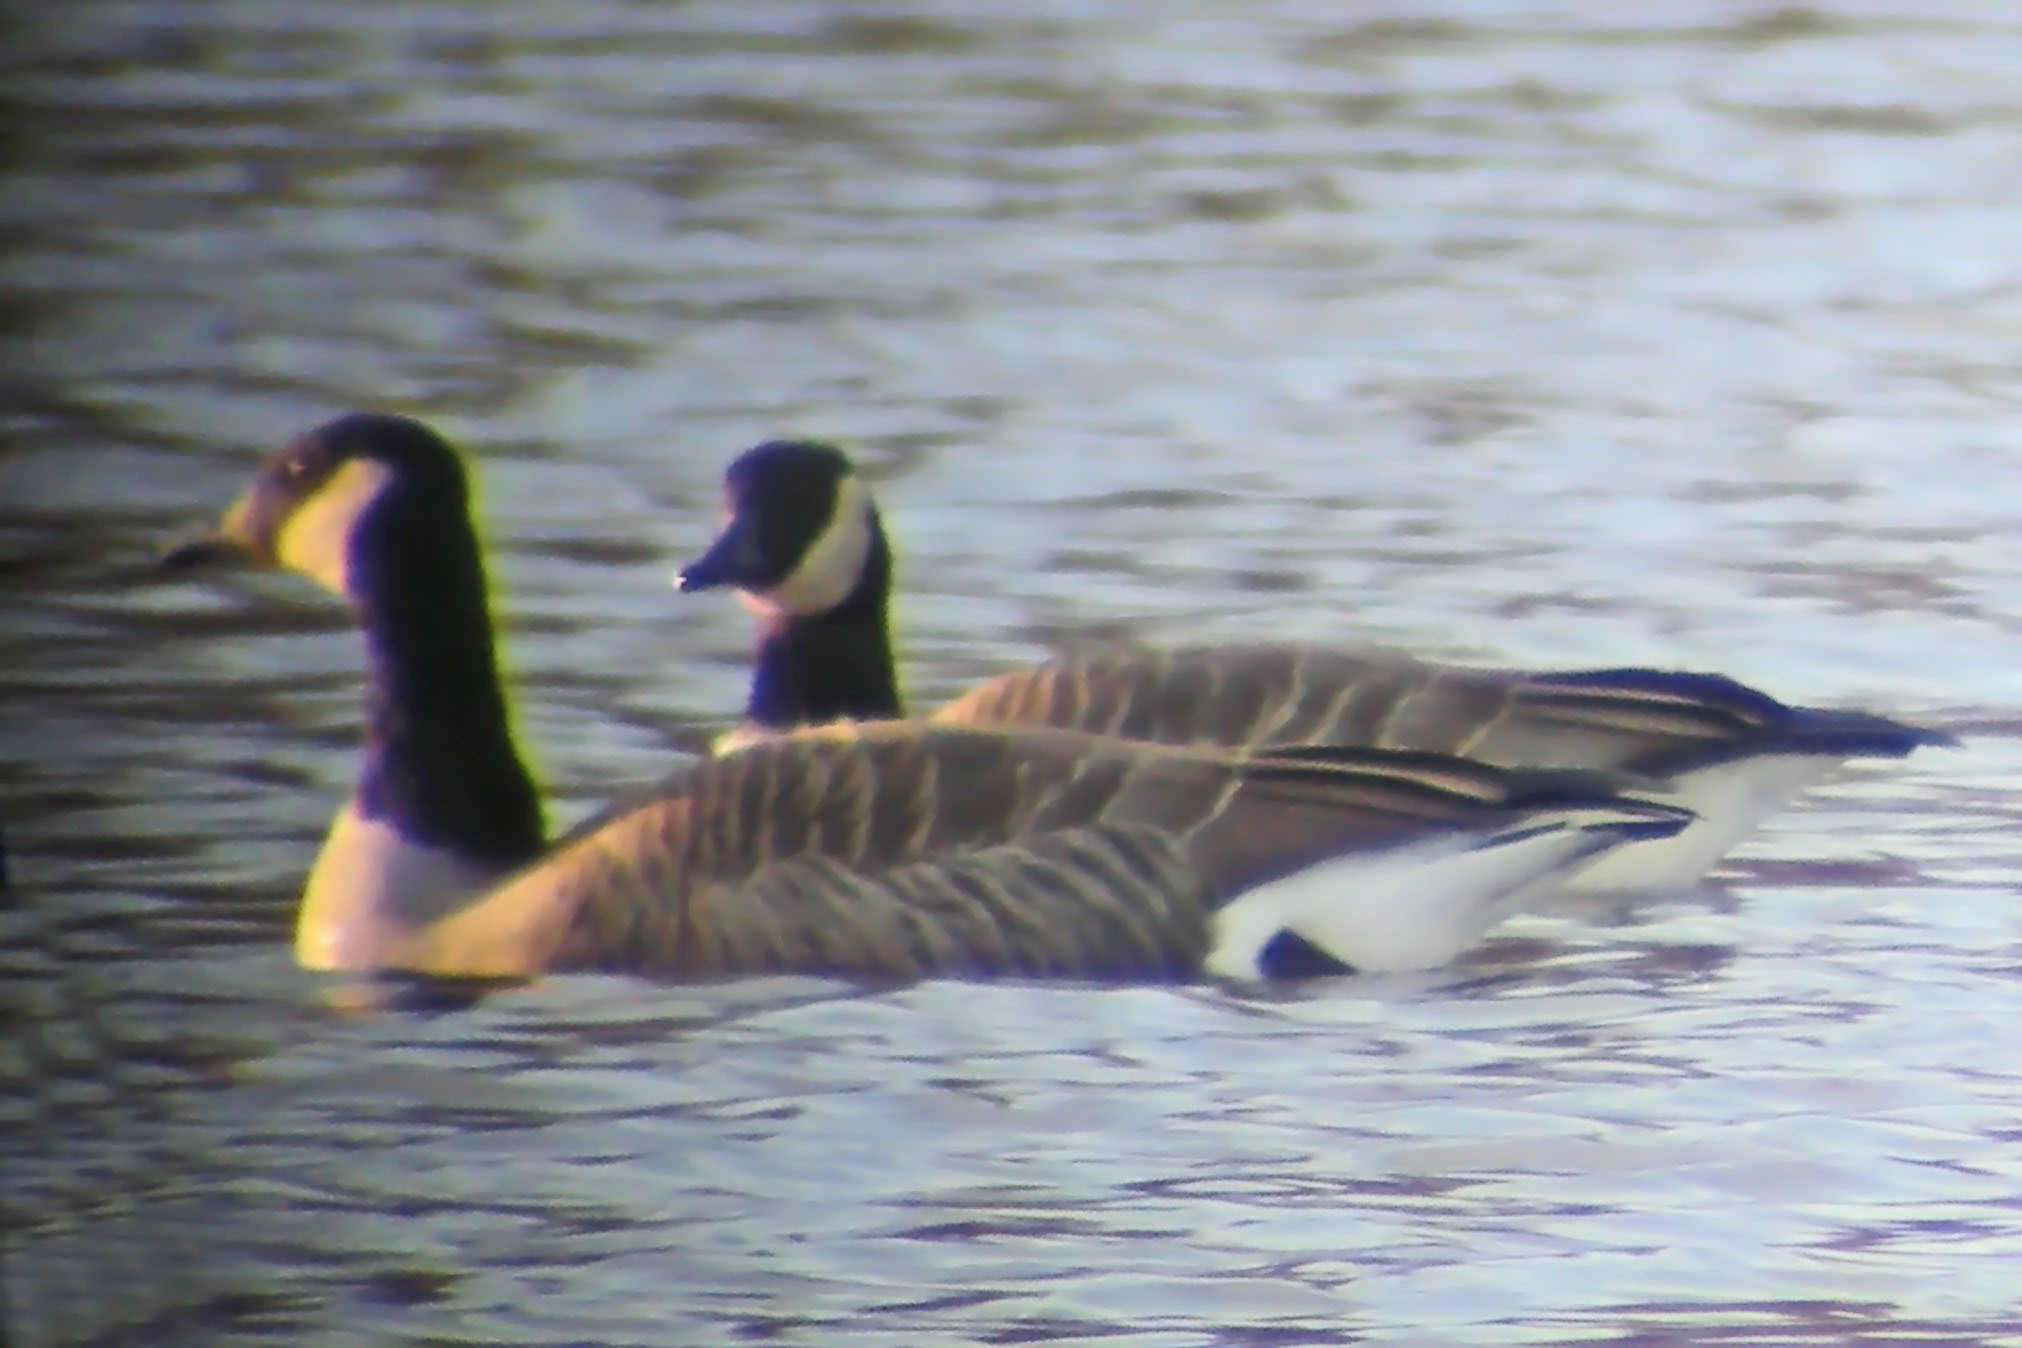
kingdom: Animalia
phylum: Chordata
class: Aves
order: Anseriformes
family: Anatidae
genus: Branta
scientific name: Branta canadensis
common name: Canada goose
